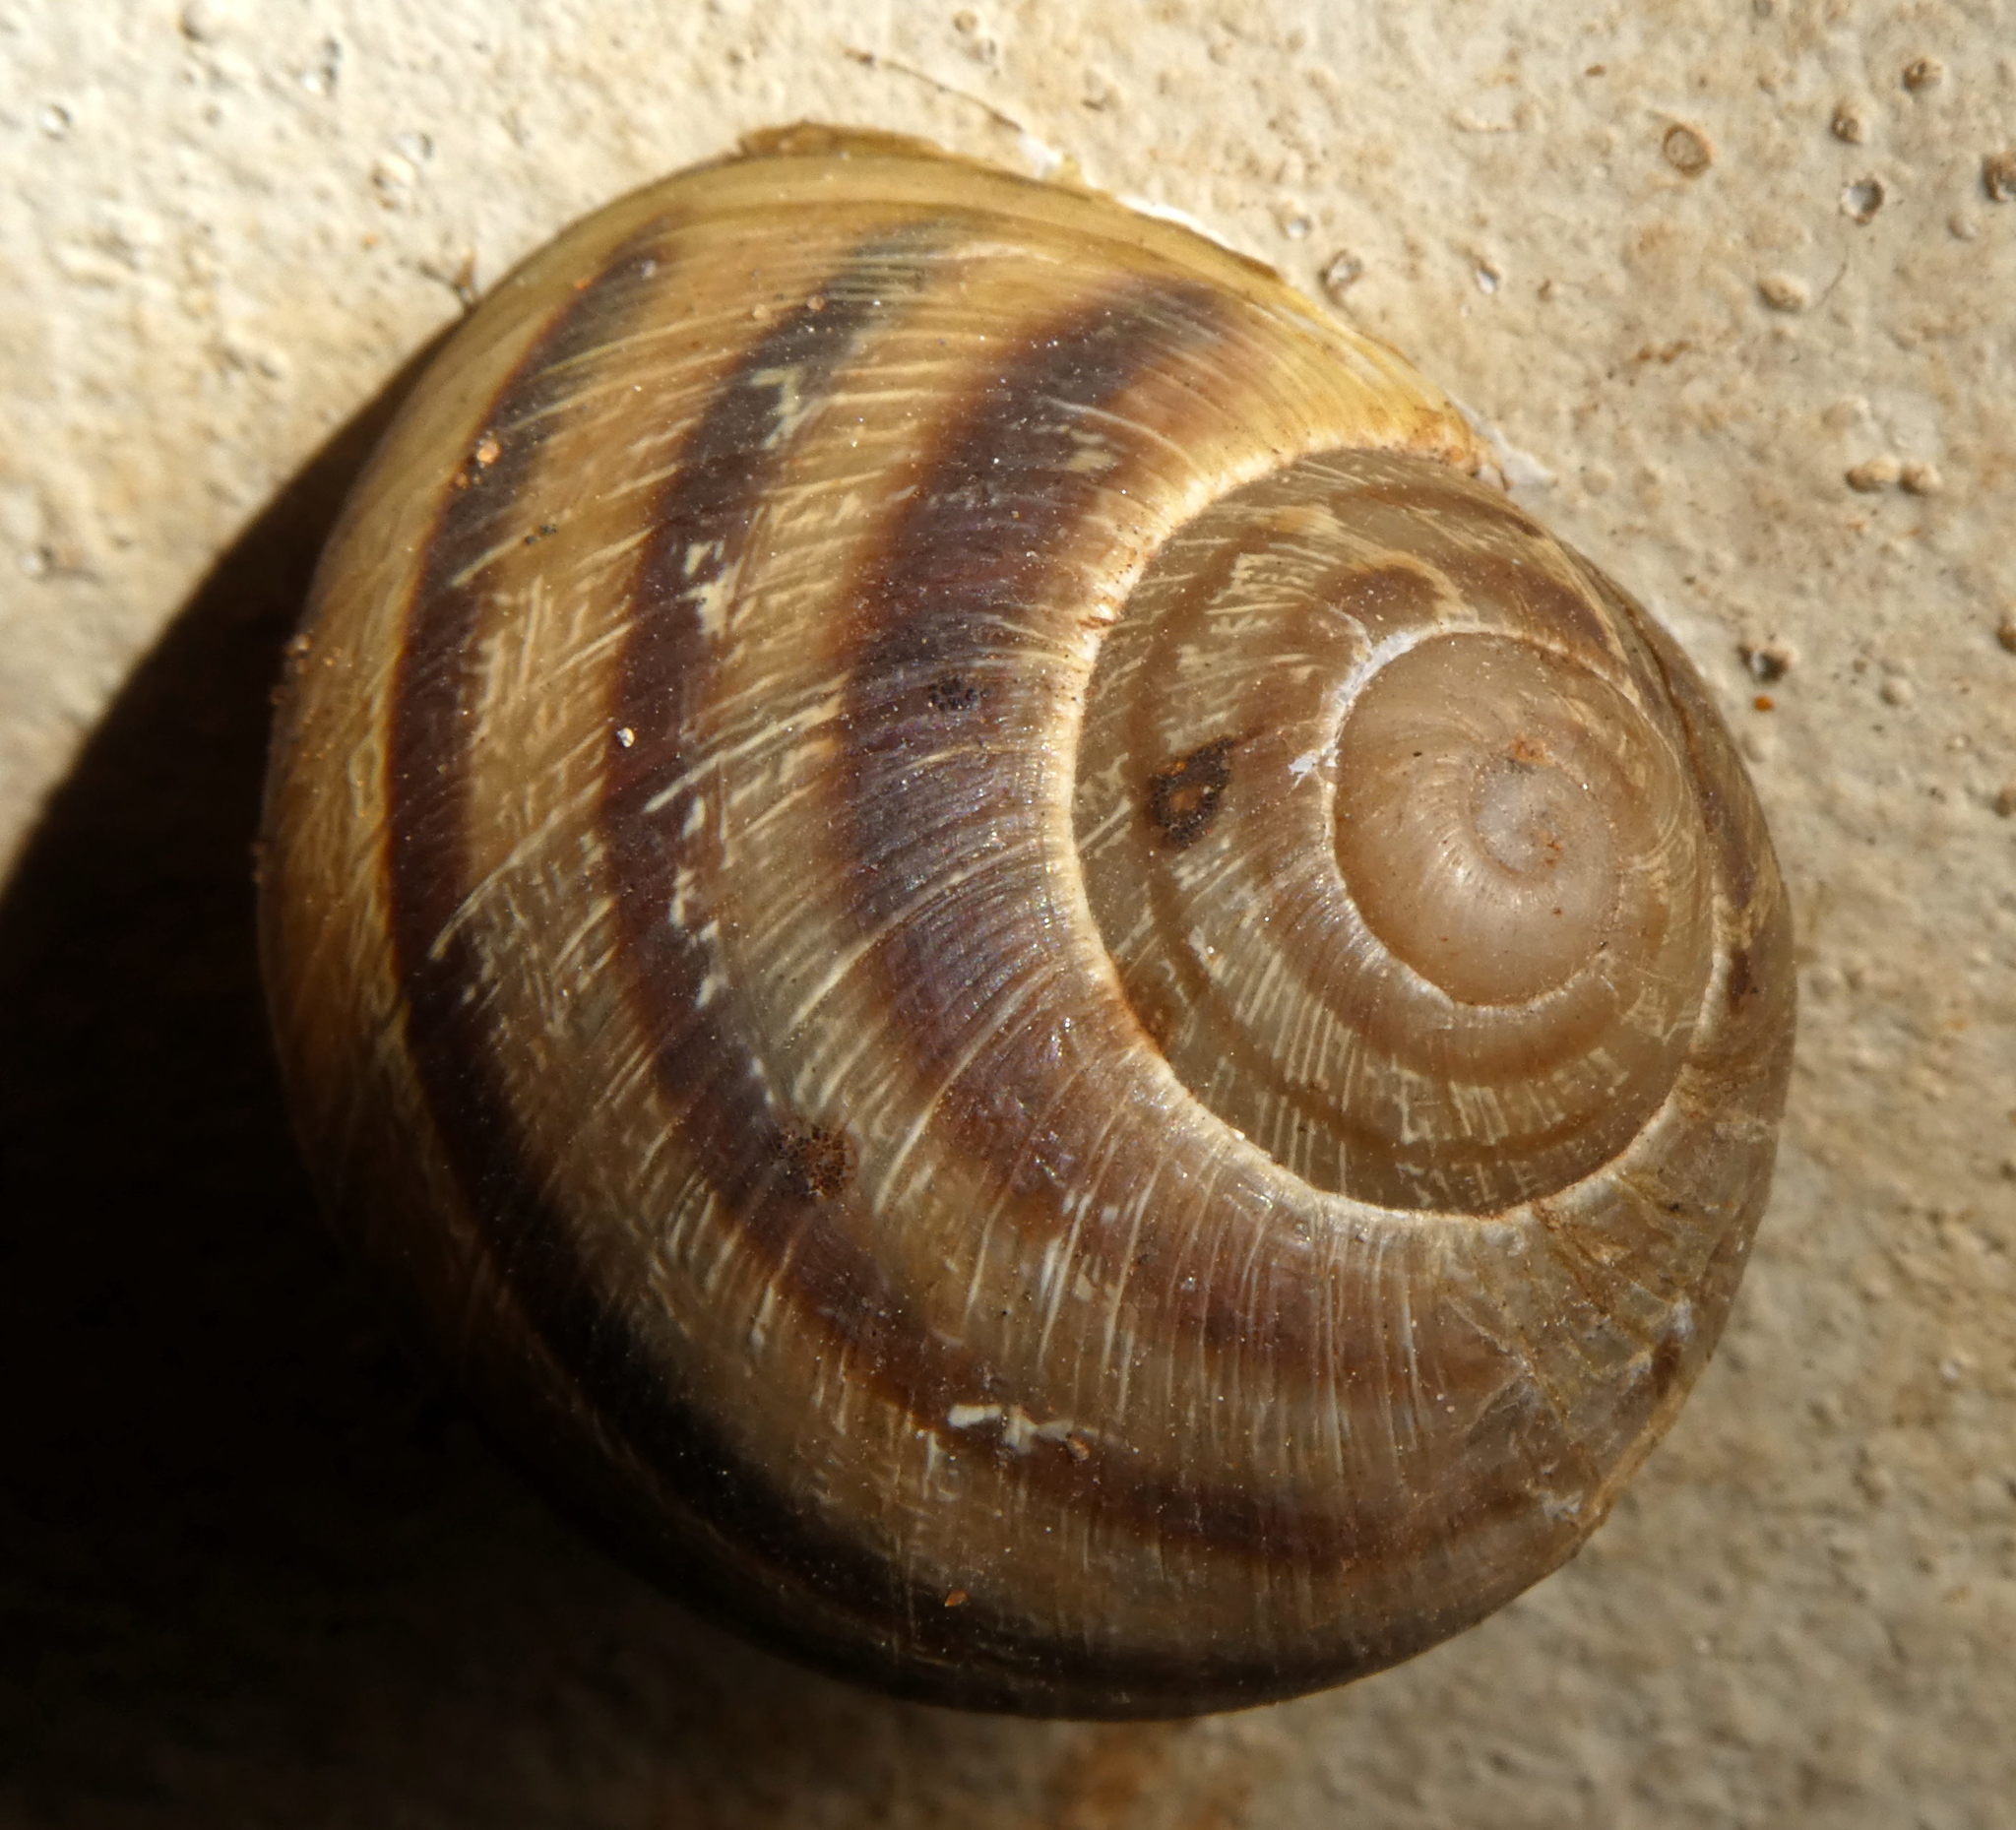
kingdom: Animalia
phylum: Mollusca
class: Gastropoda
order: Stylommatophora
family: Helicidae
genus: Cornu
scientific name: Cornu aspersum
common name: Brown garden snail
